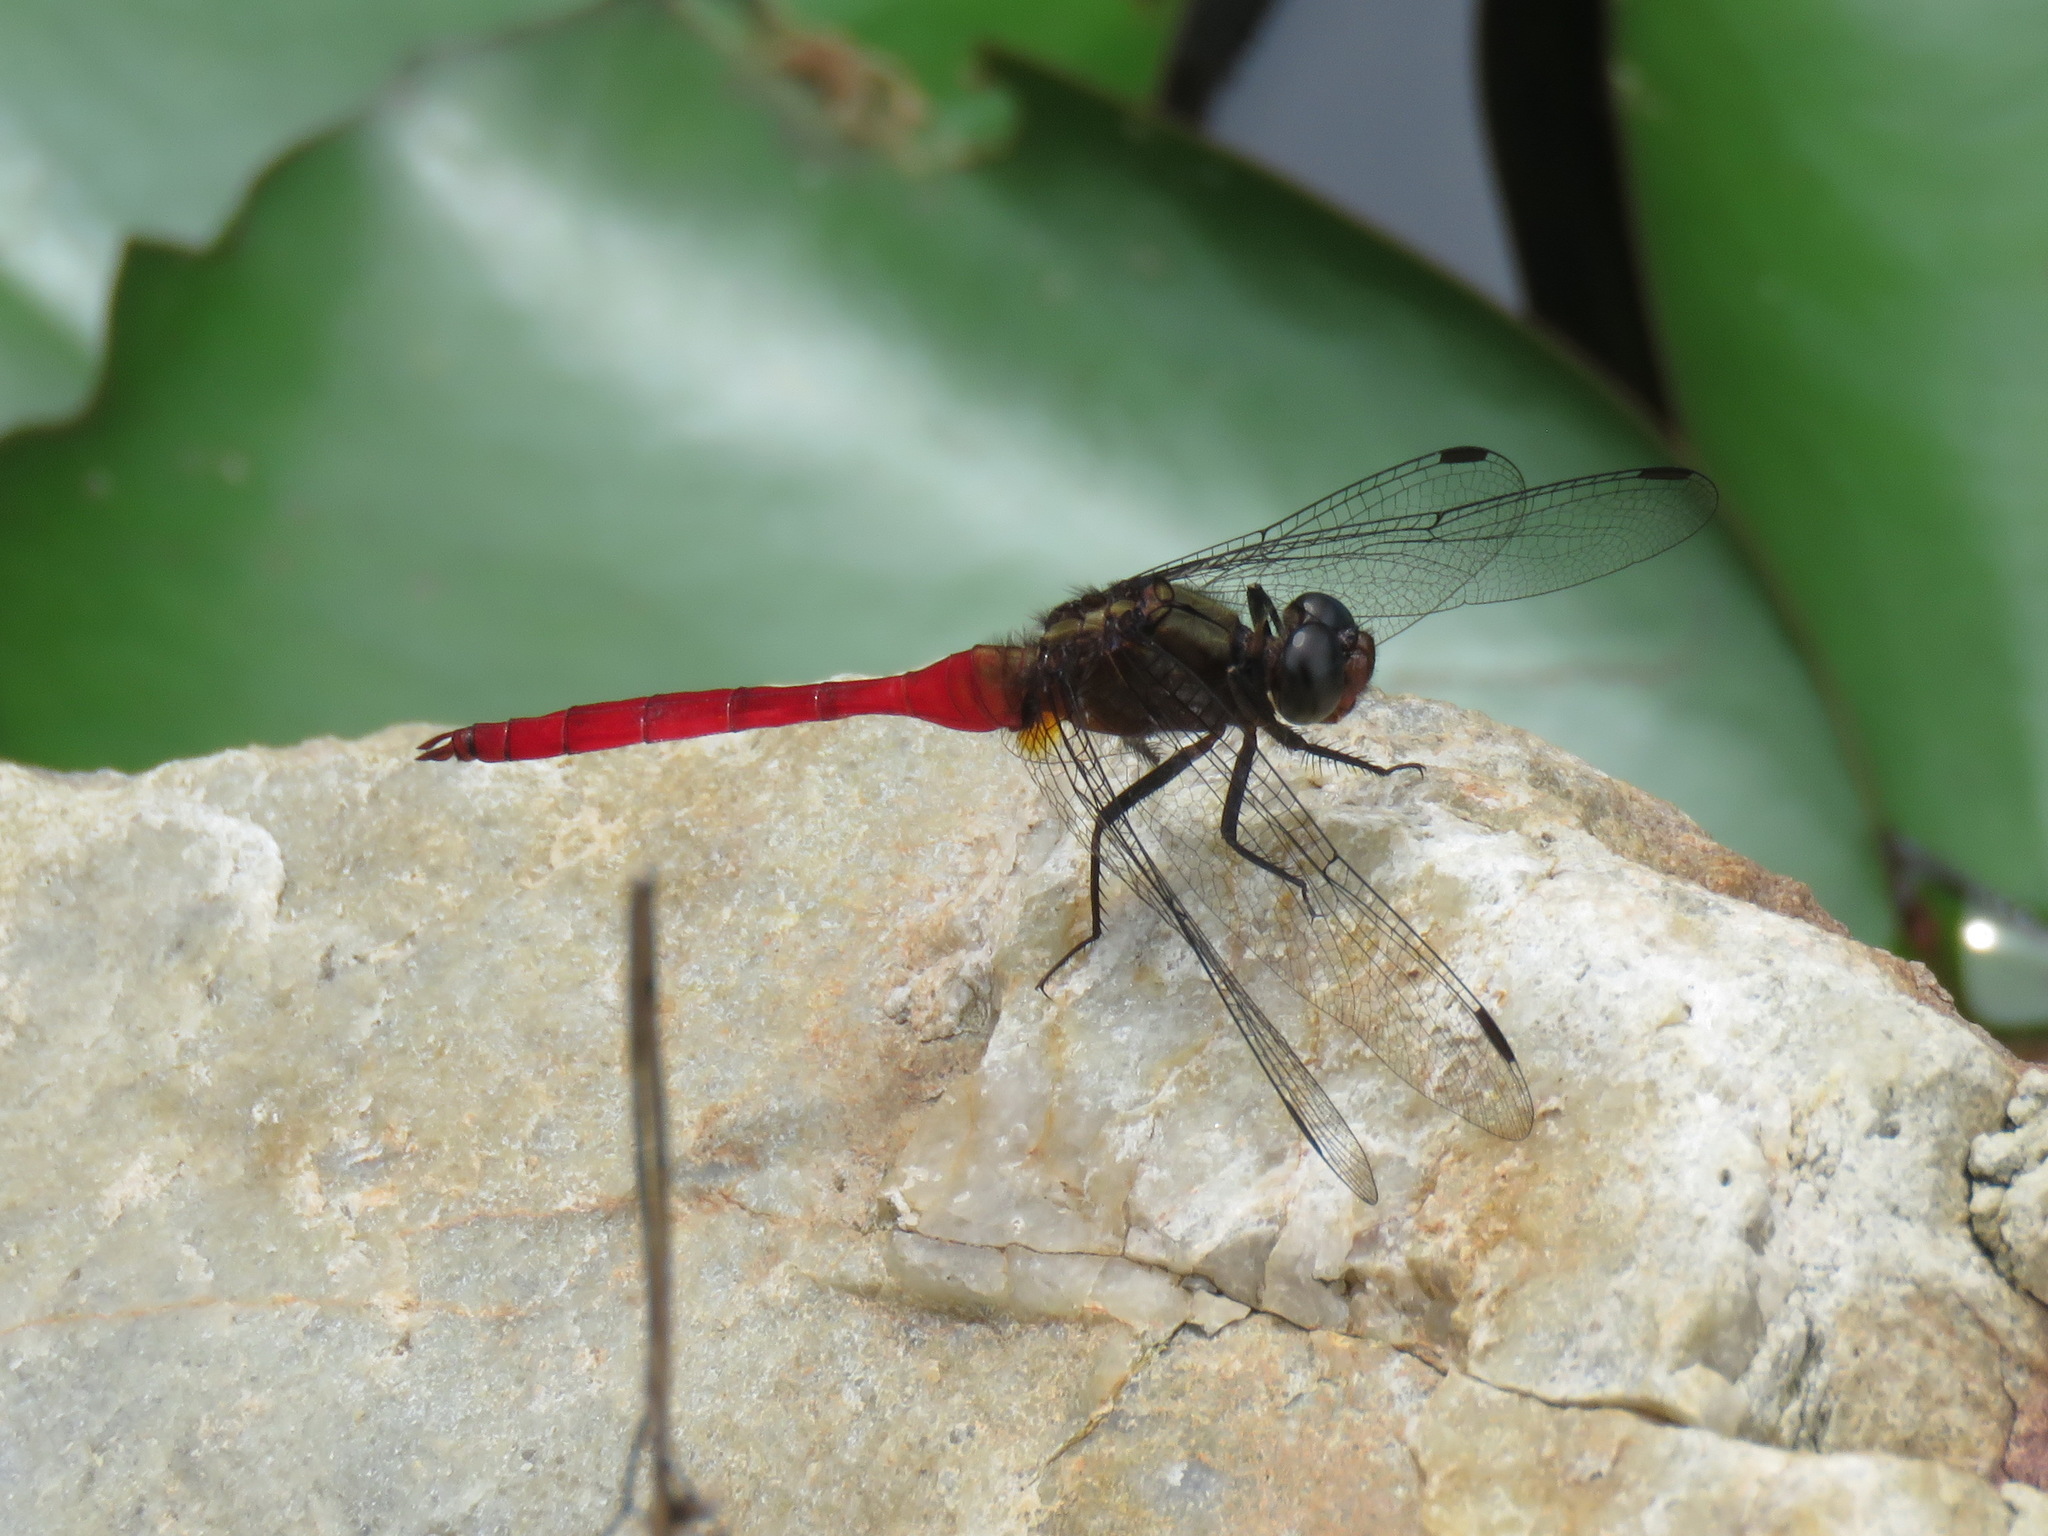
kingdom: Animalia
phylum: Arthropoda
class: Insecta
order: Odonata
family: Libellulidae
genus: Orthetrum
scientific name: Orthetrum villosovittatum
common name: Firery skimmer
